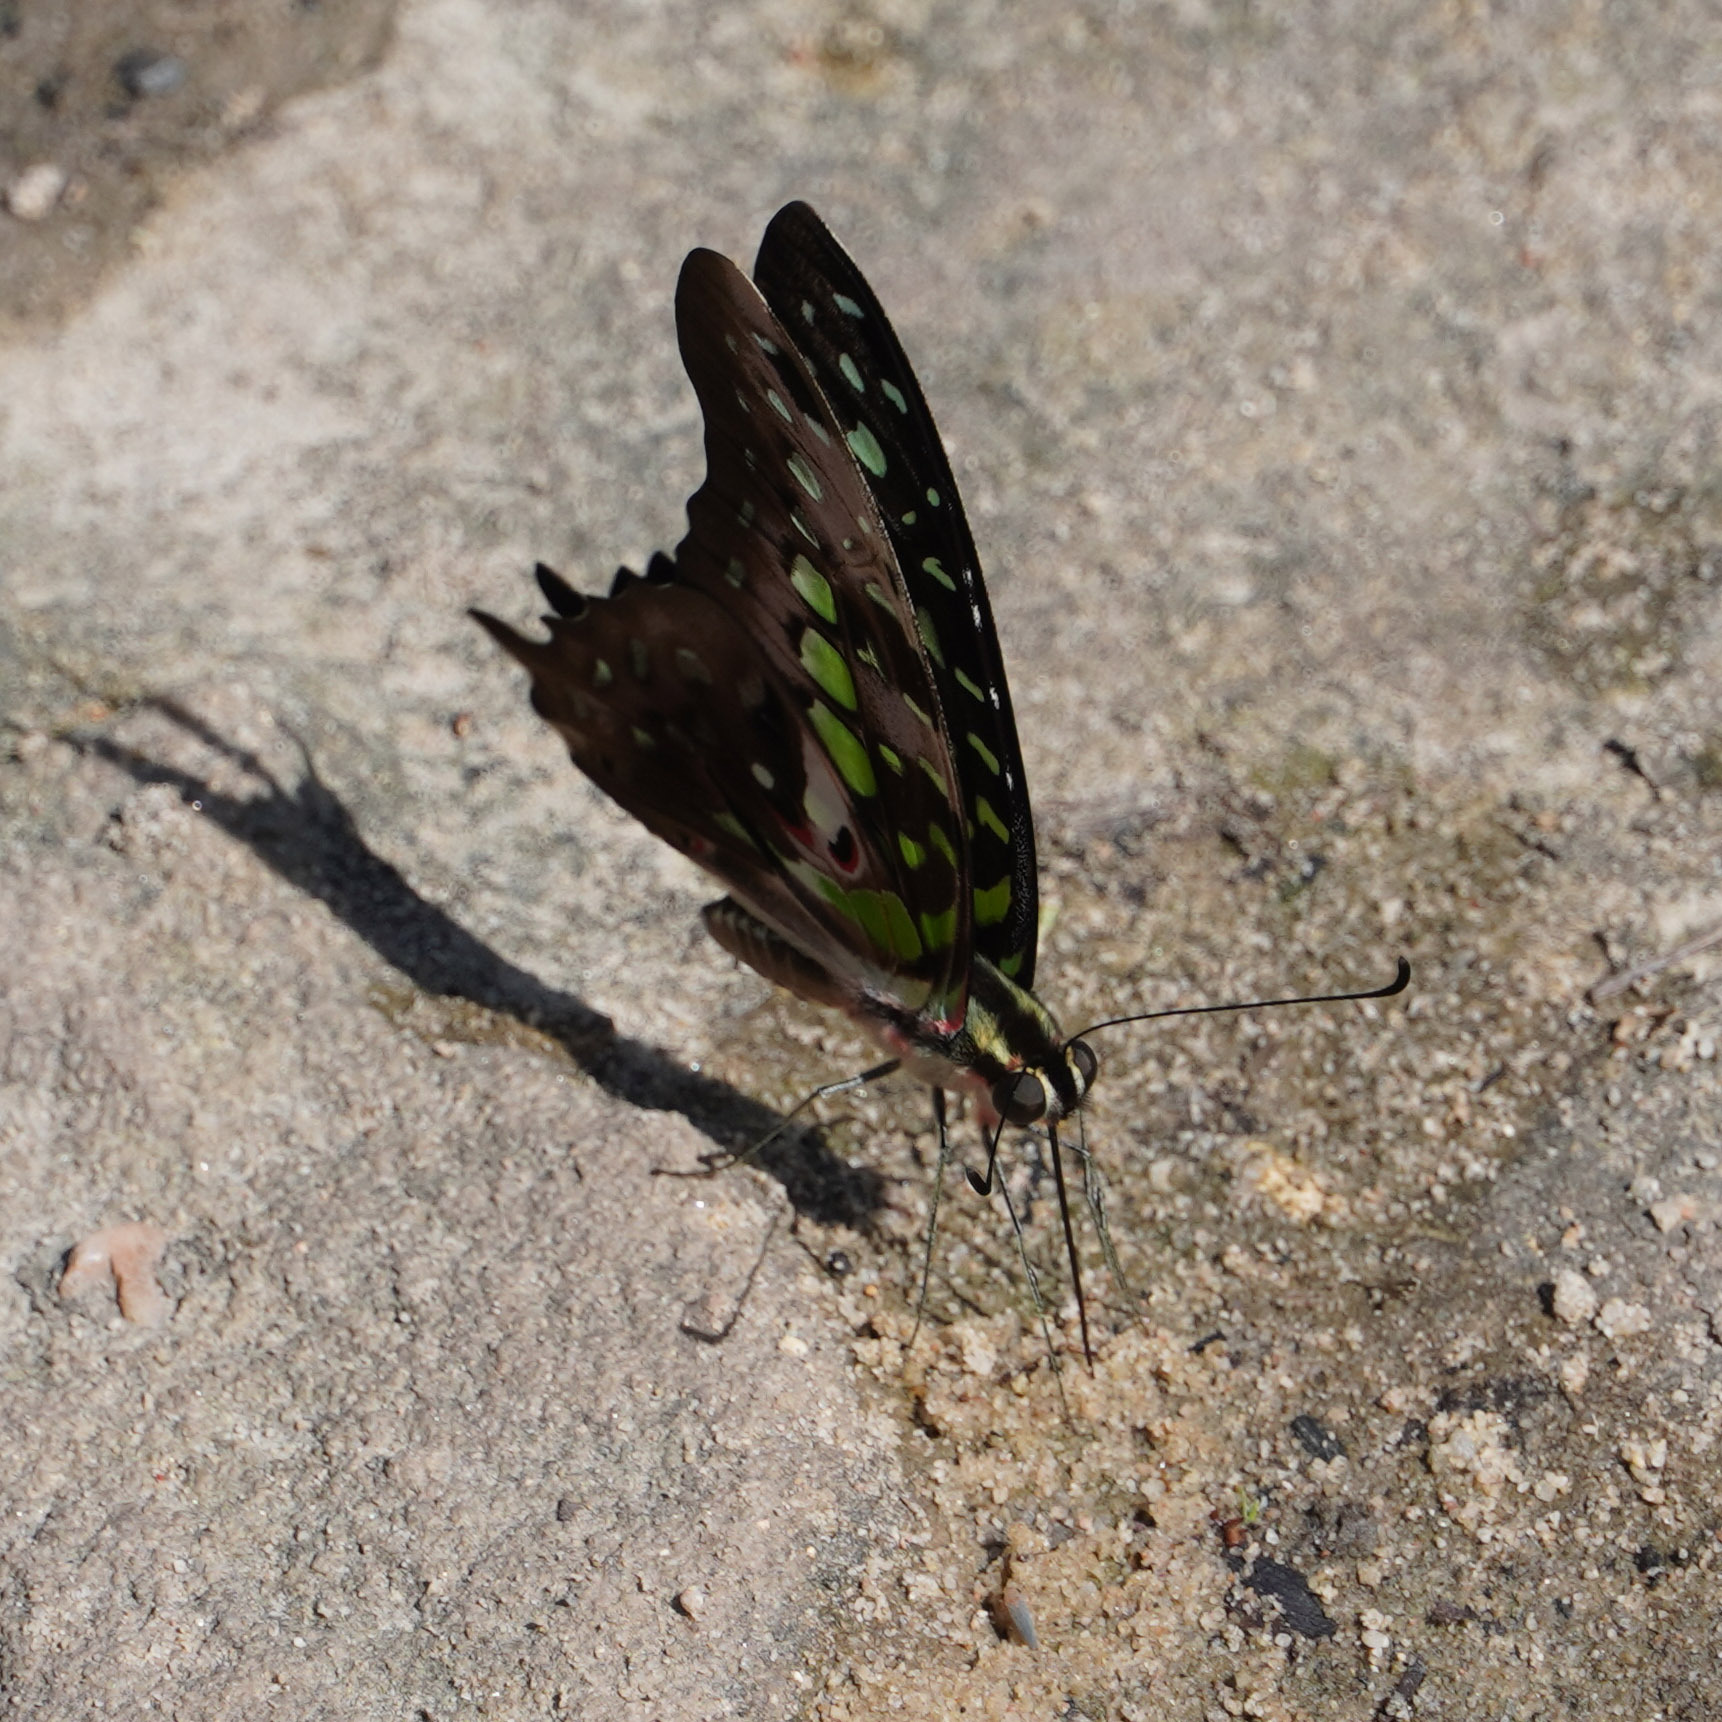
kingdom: Animalia
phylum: Arthropoda
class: Insecta
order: Lepidoptera
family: Papilionidae
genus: Graphium
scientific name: Graphium agamemnon
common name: Tailed jay
